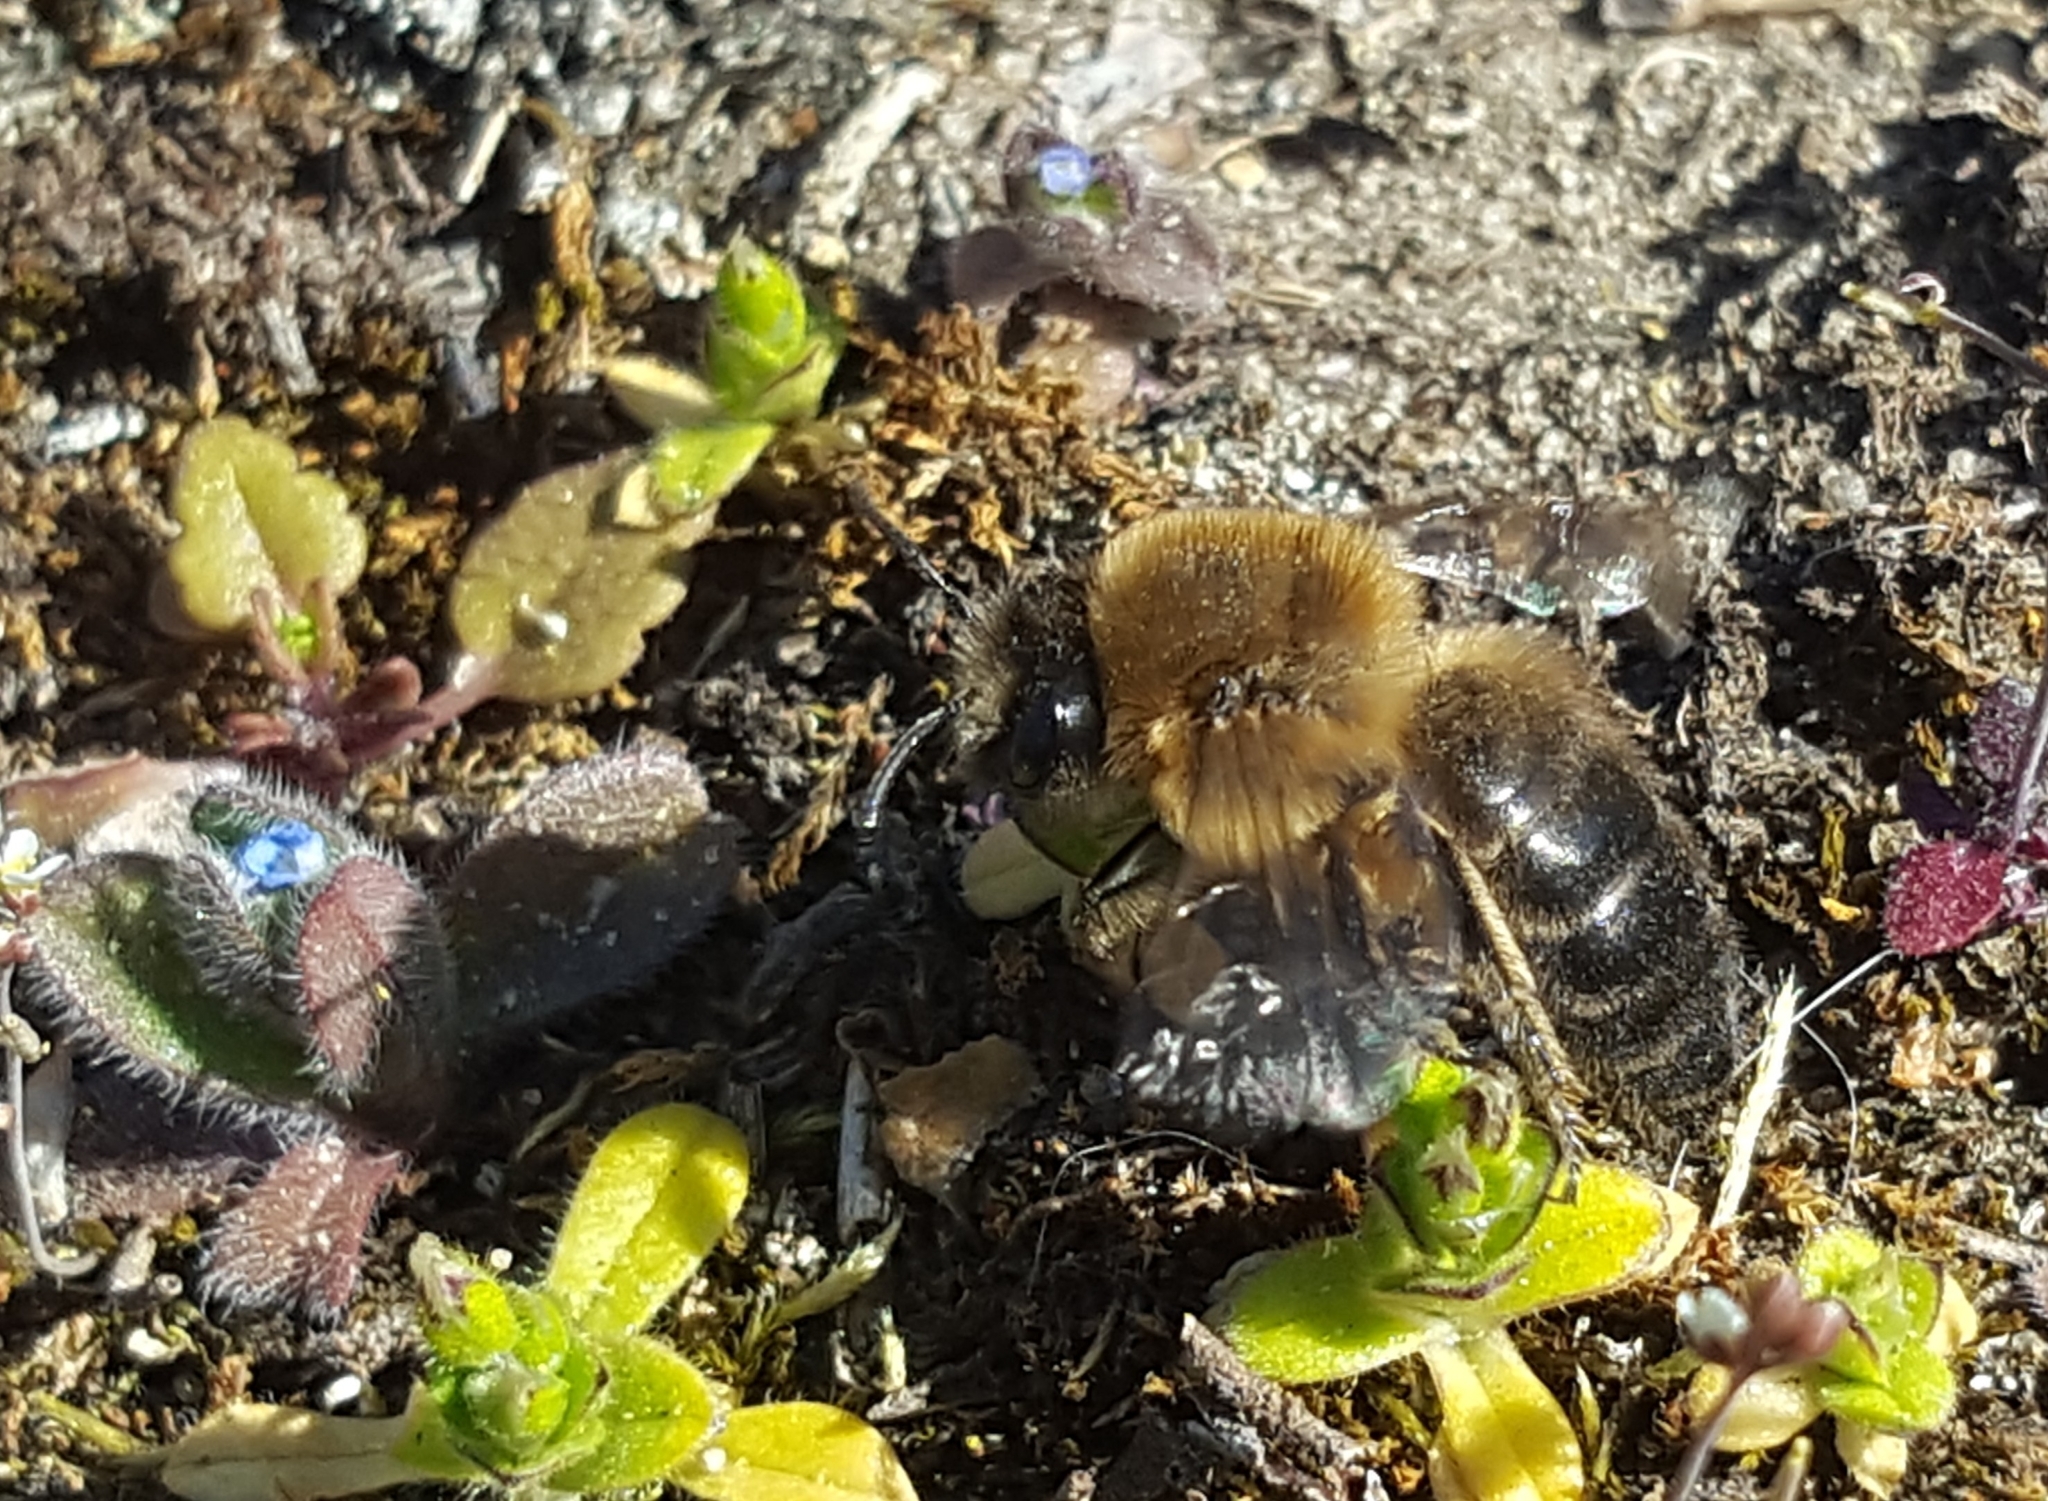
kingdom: Animalia
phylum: Arthropoda
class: Insecta
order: Hymenoptera
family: Colletidae
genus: Colletes
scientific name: Colletes cunicularius
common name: Early colletes
